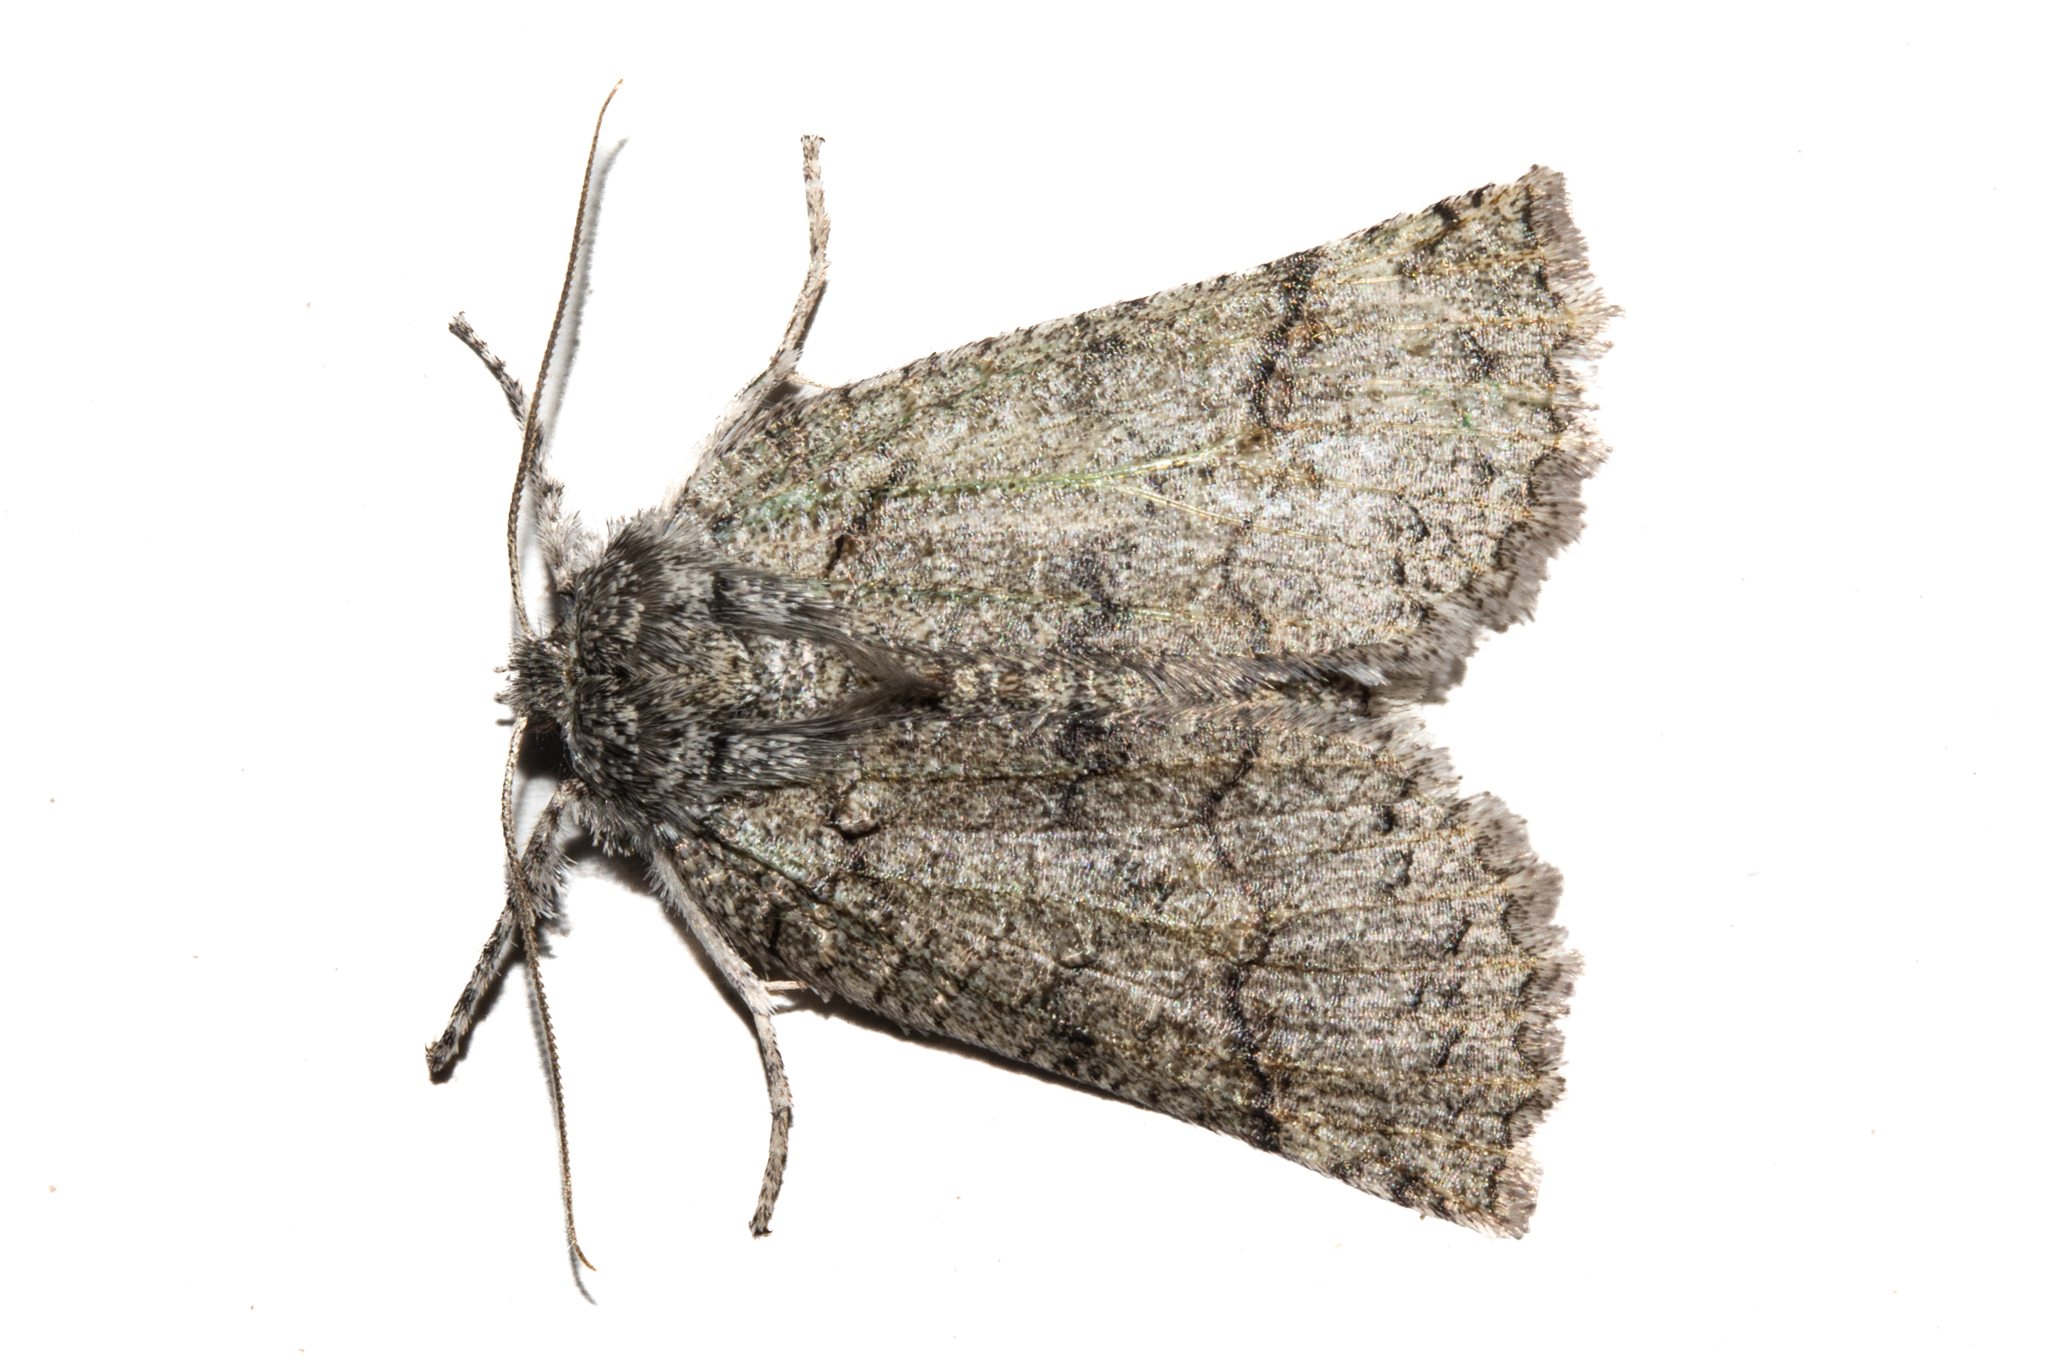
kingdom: Animalia
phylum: Arthropoda
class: Insecta
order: Lepidoptera
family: Geometridae
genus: Declana
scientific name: Declana floccosa
